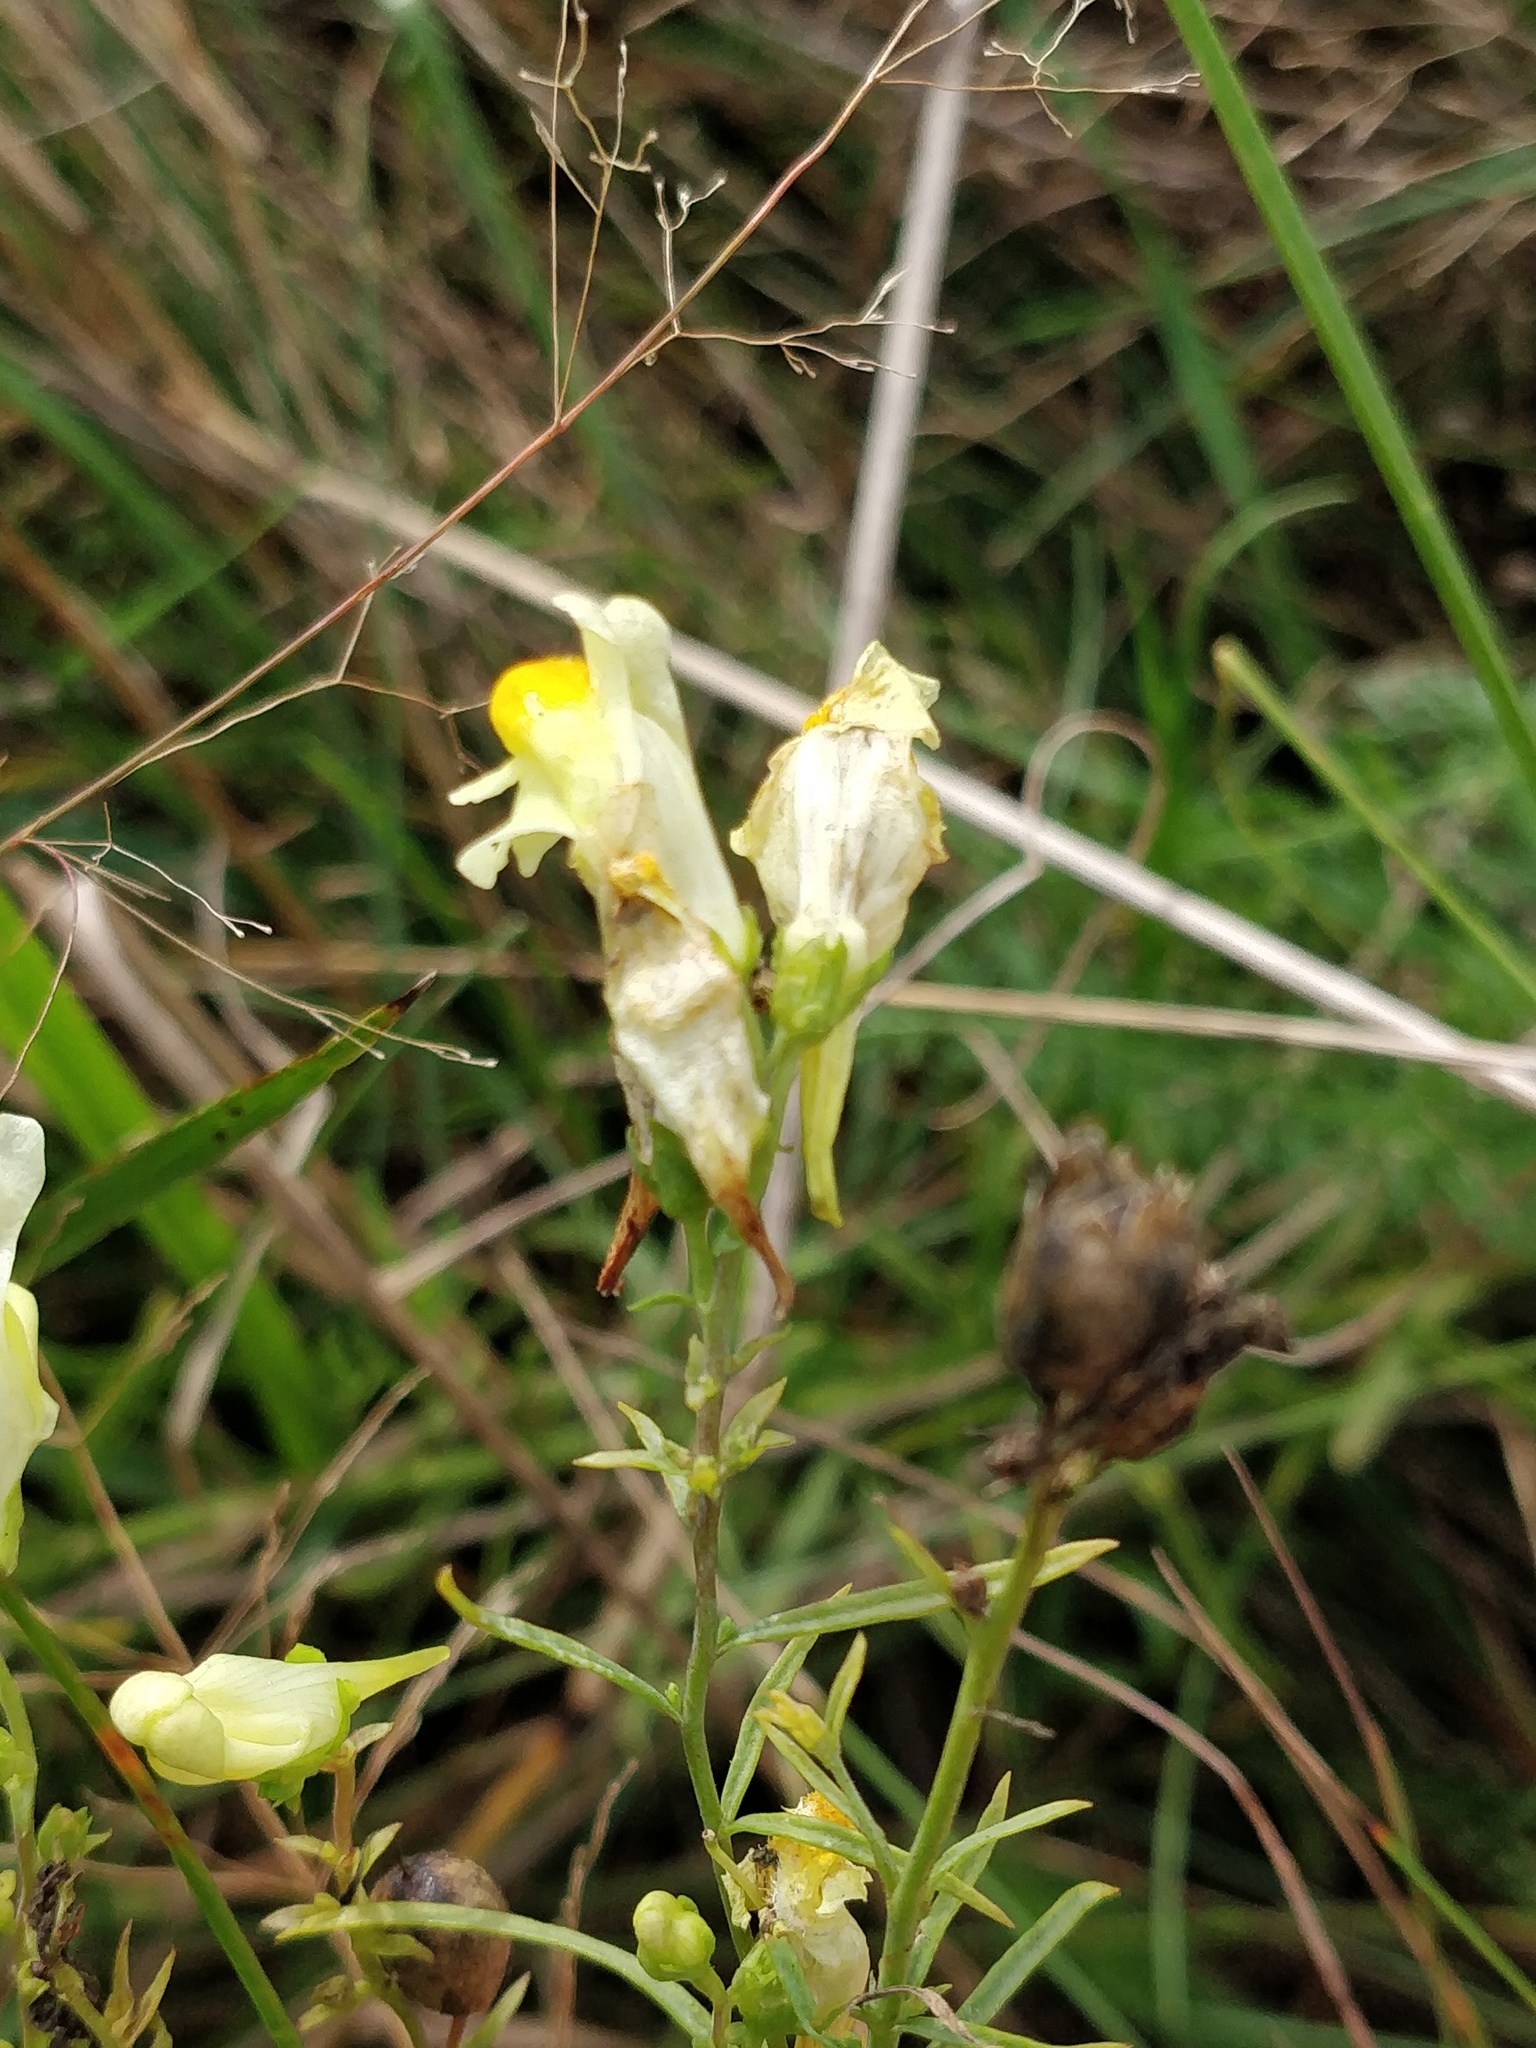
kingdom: Plantae
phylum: Tracheophyta
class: Magnoliopsida
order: Lamiales
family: Plantaginaceae
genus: Linaria
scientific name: Linaria vulgaris
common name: Butter and eggs
